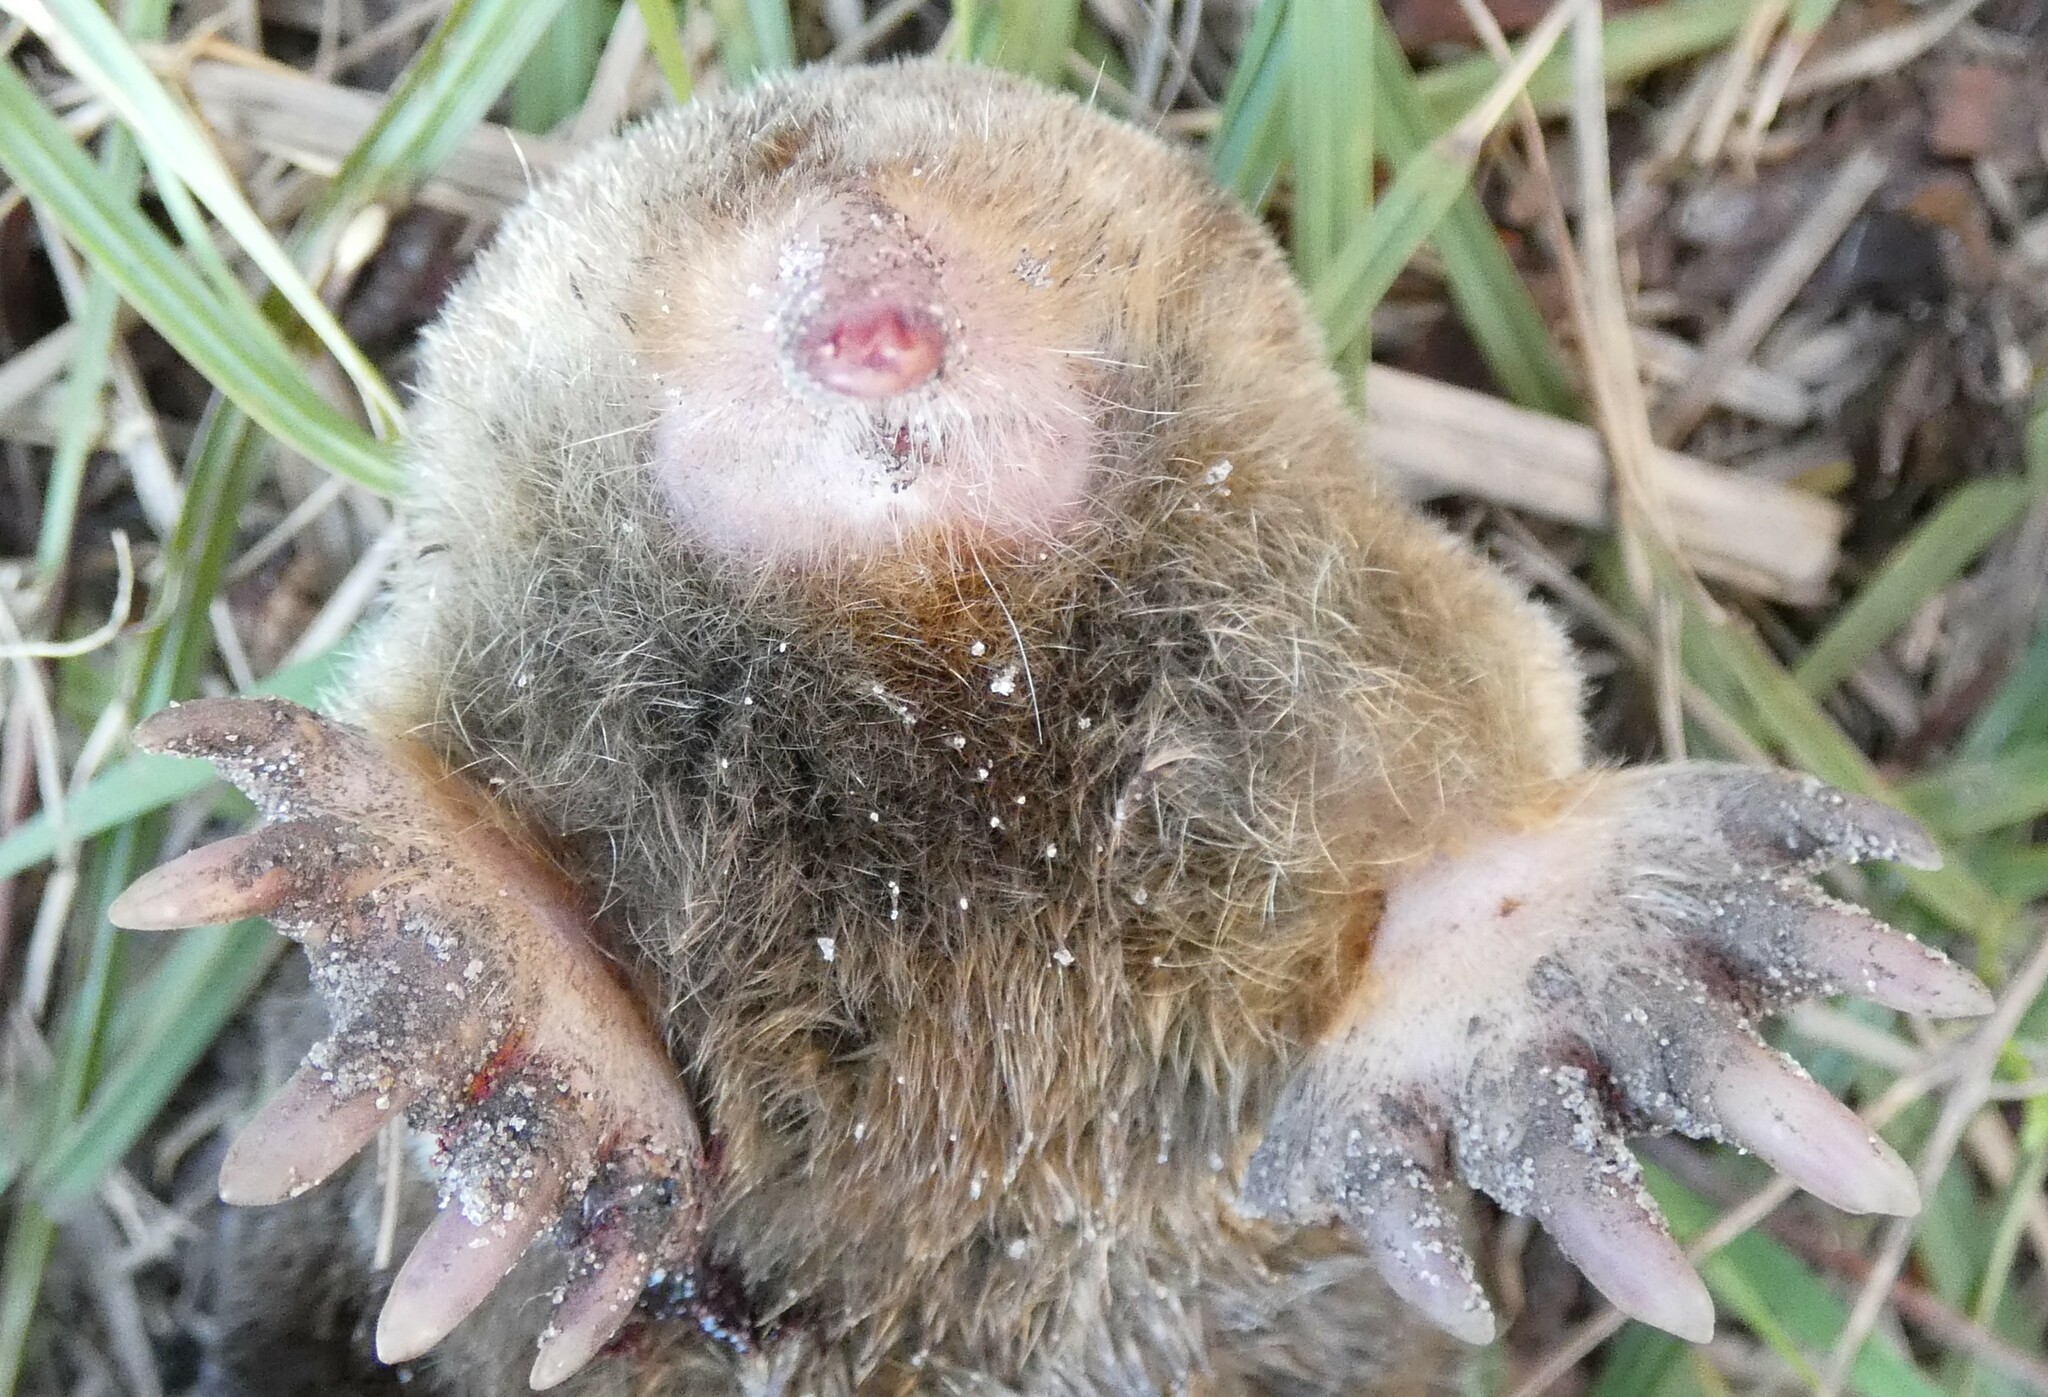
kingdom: Animalia
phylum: Chordata
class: Mammalia
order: Soricomorpha
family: Talpidae
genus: Scalopus
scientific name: Scalopus aquaticus
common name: Eastern mole
